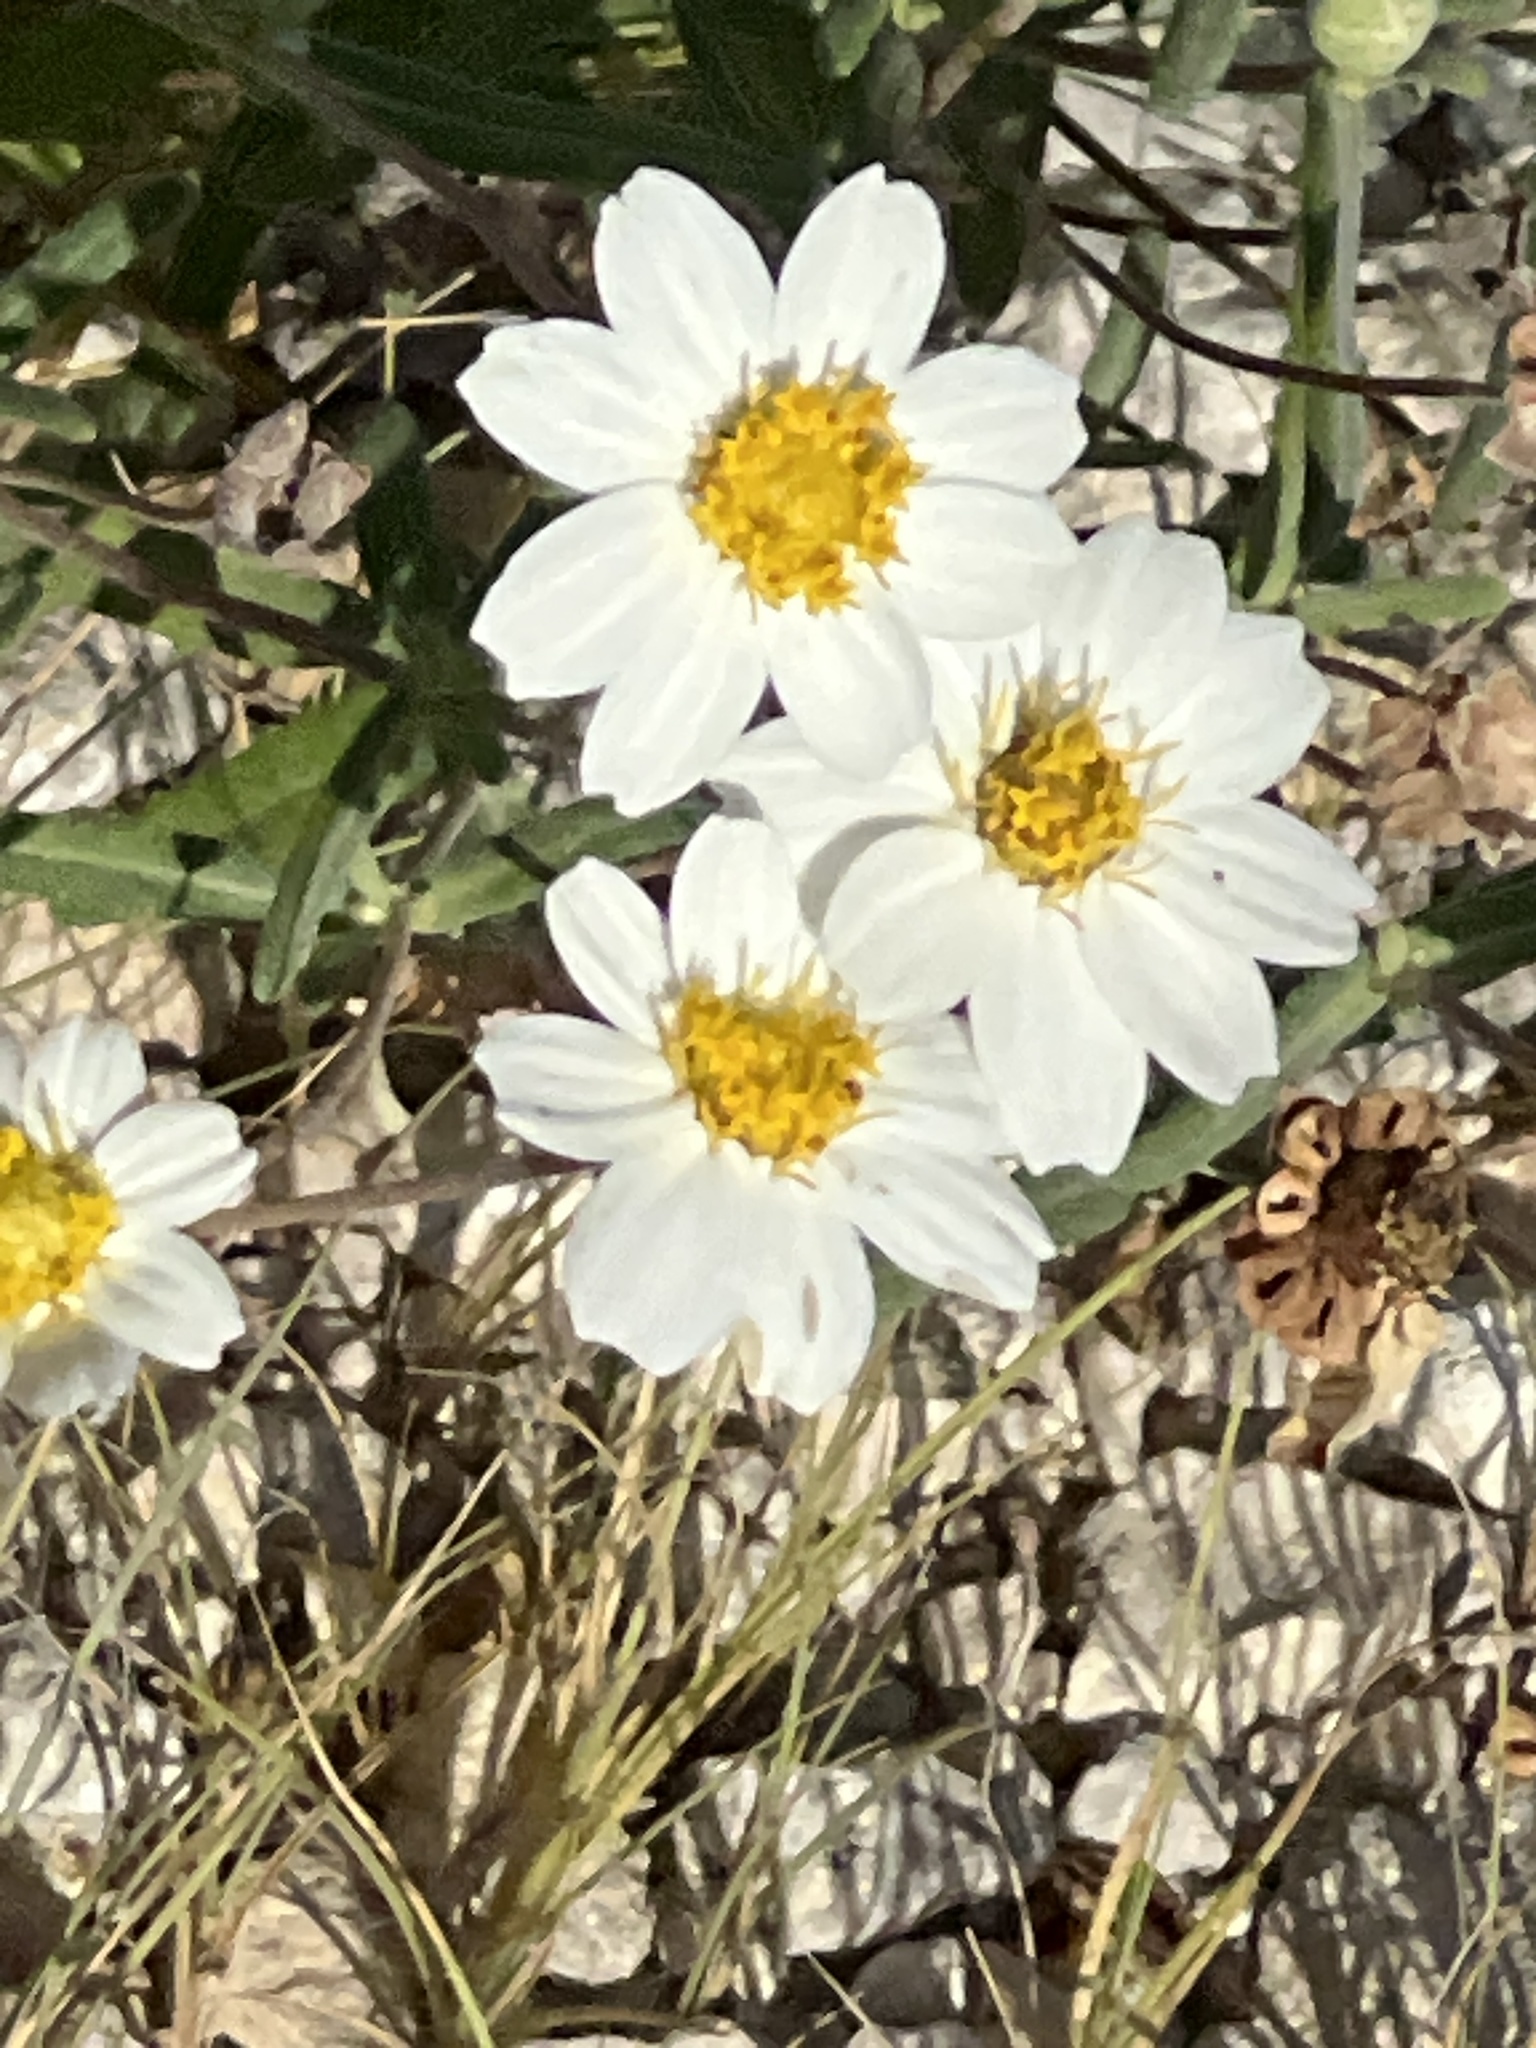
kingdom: Plantae
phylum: Tracheophyta
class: Magnoliopsida
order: Asterales
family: Asteraceae
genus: Melampodium
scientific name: Melampodium leucanthum
